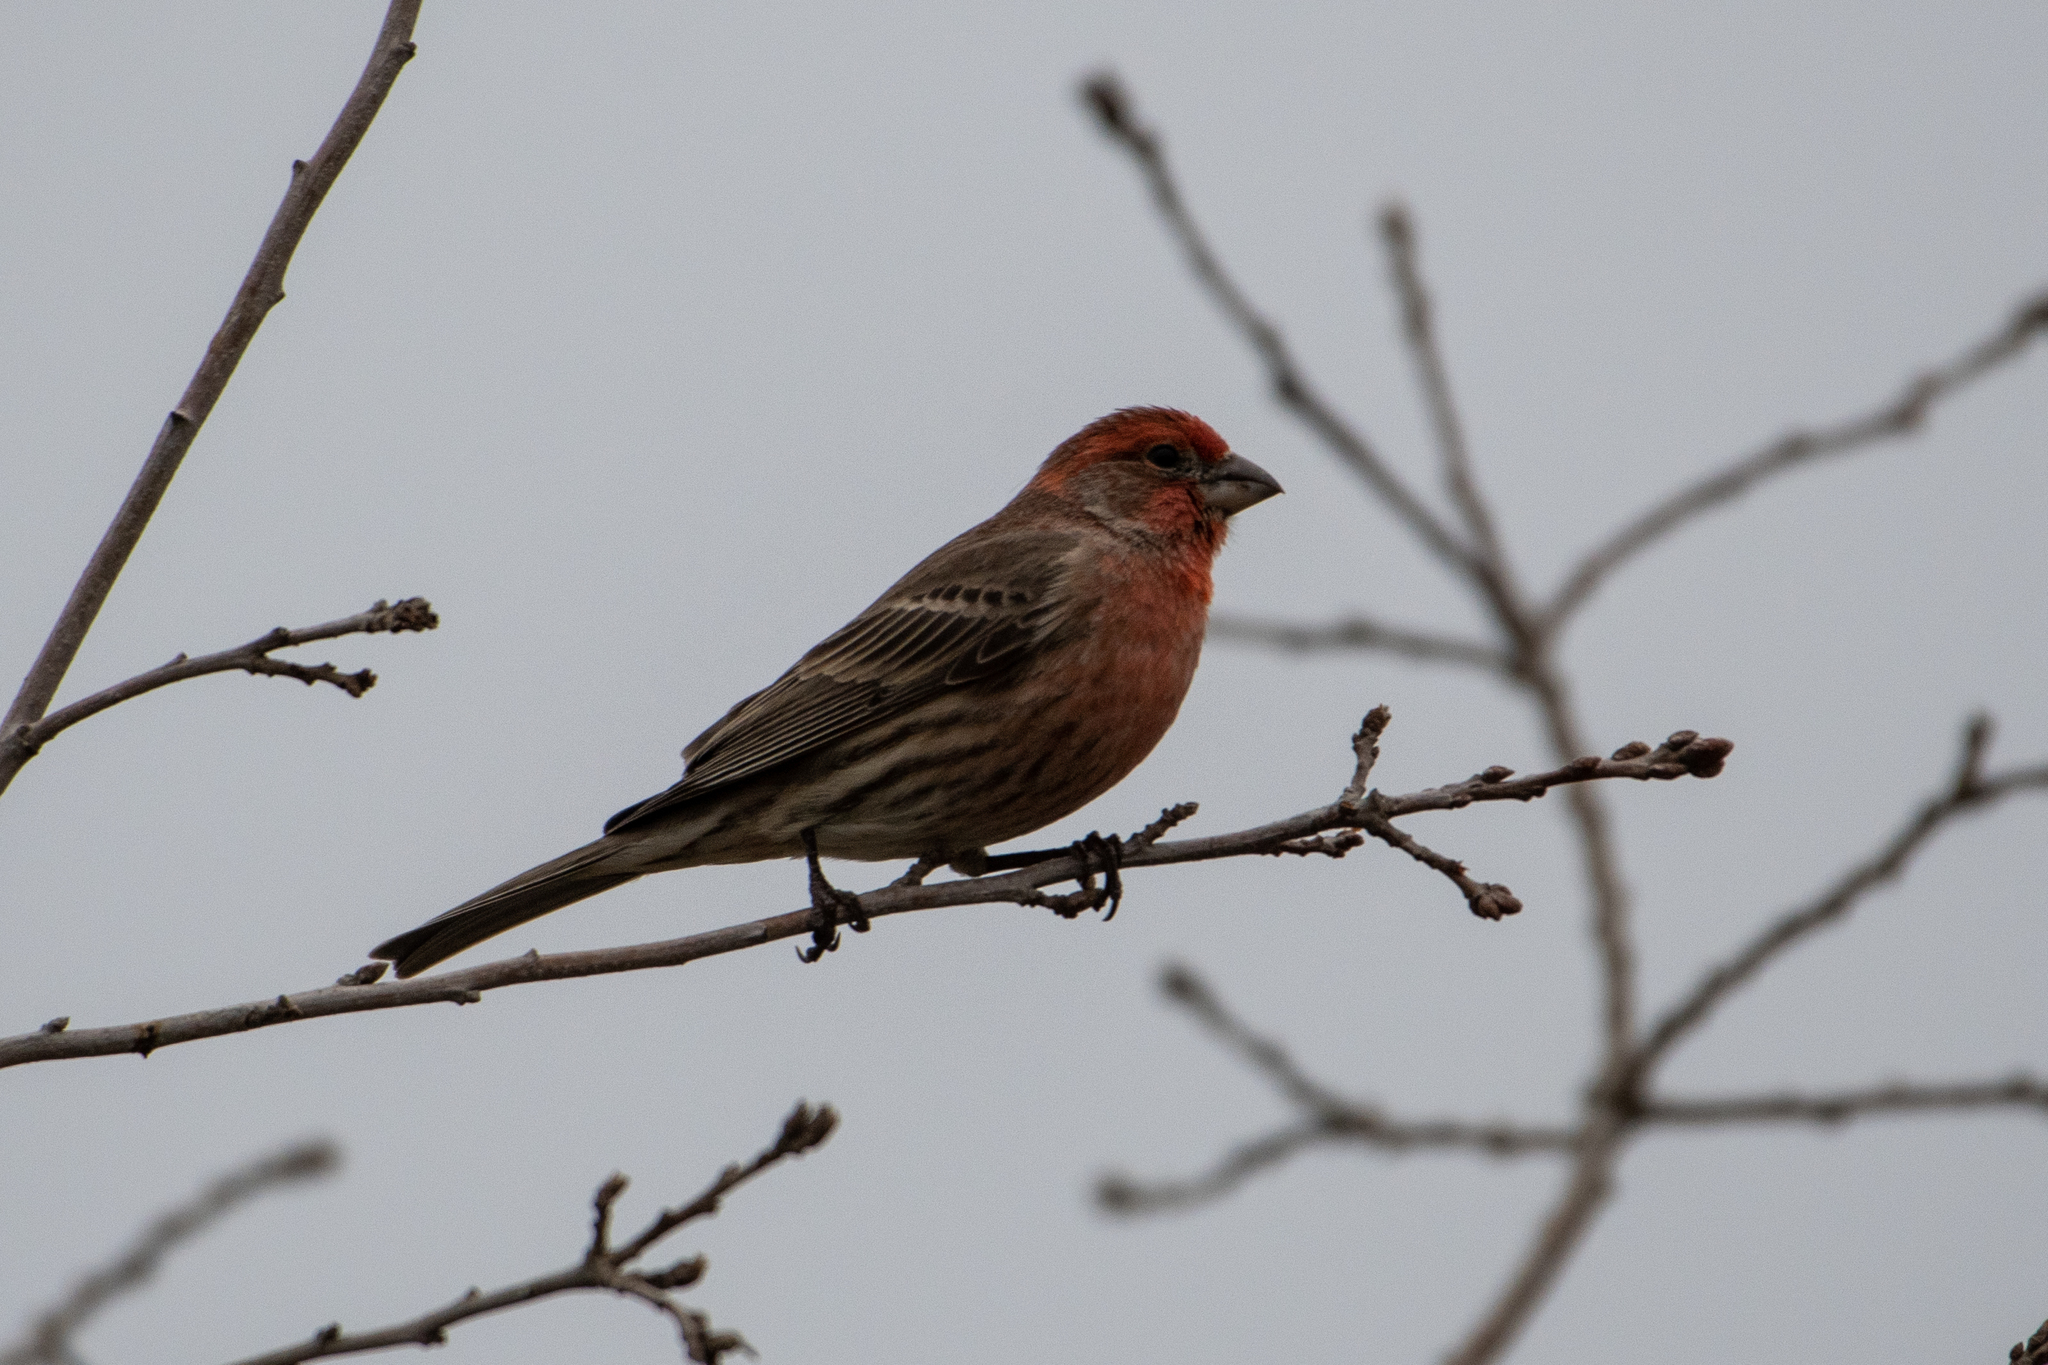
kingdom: Animalia
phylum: Chordata
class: Aves
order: Passeriformes
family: Fringillidae
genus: Haemorhous
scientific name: Haemorhous mexicanus
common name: House finch
